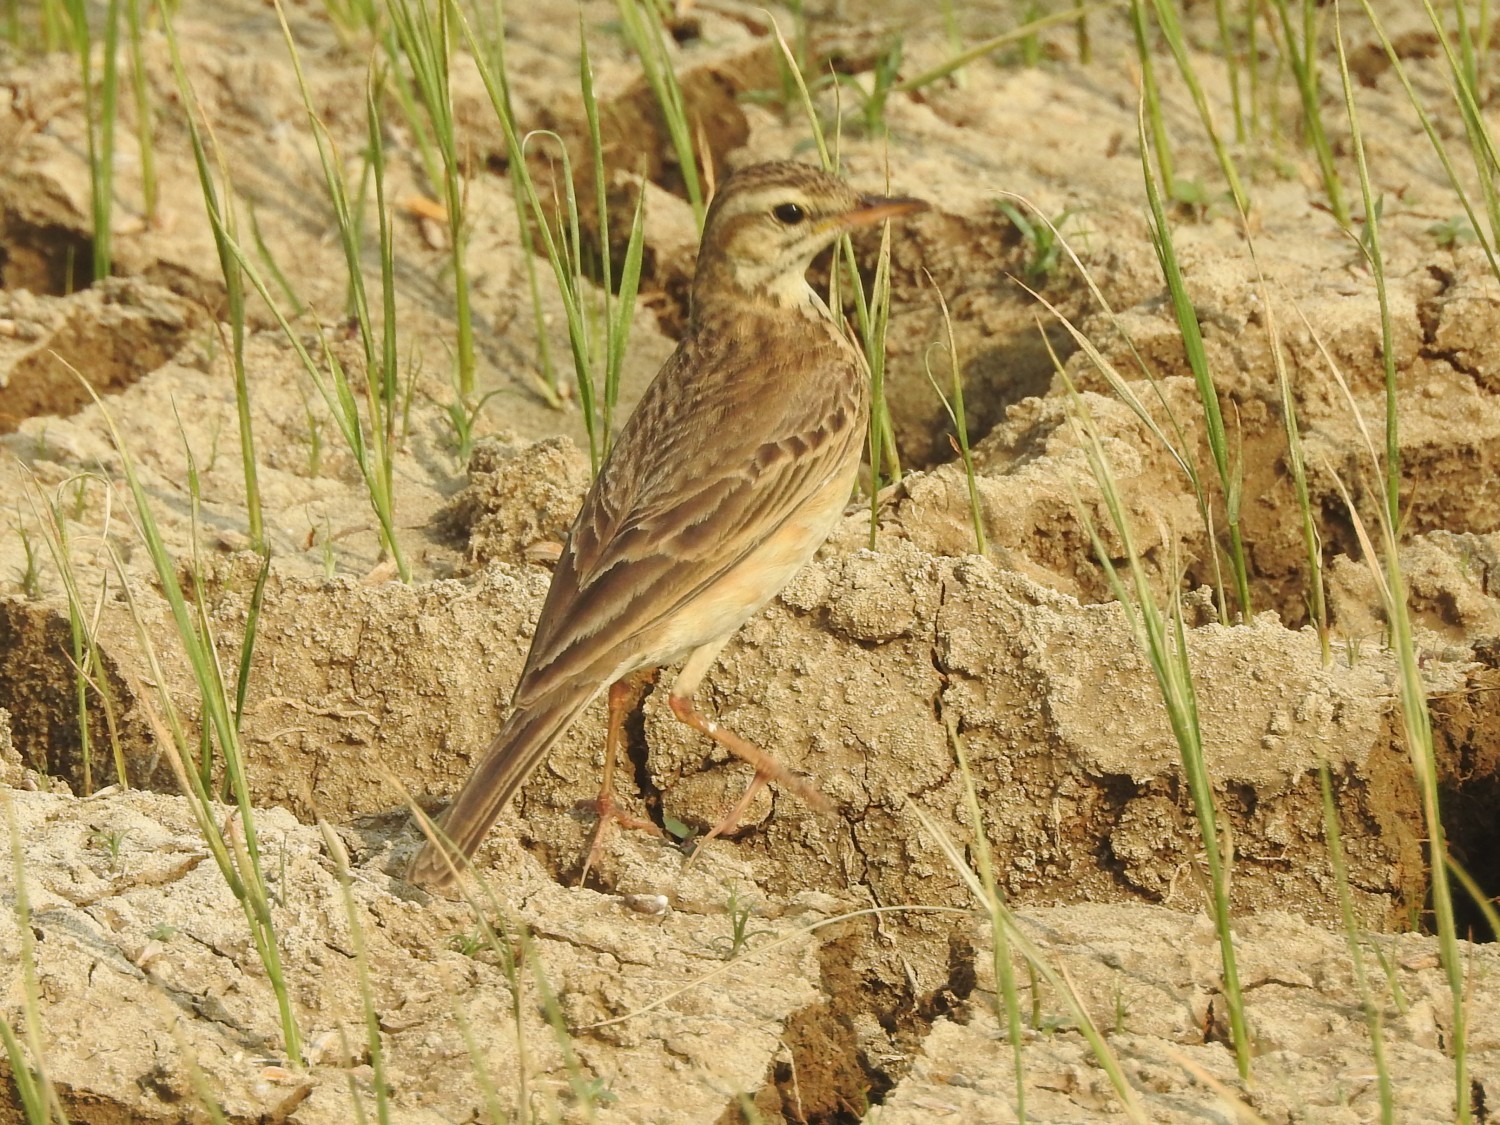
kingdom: Animalia
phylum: Chordata
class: Aves
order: Passeriformes
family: Motacillidae
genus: Anthus
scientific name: Anthus rufulus
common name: Paddyfield pipit
